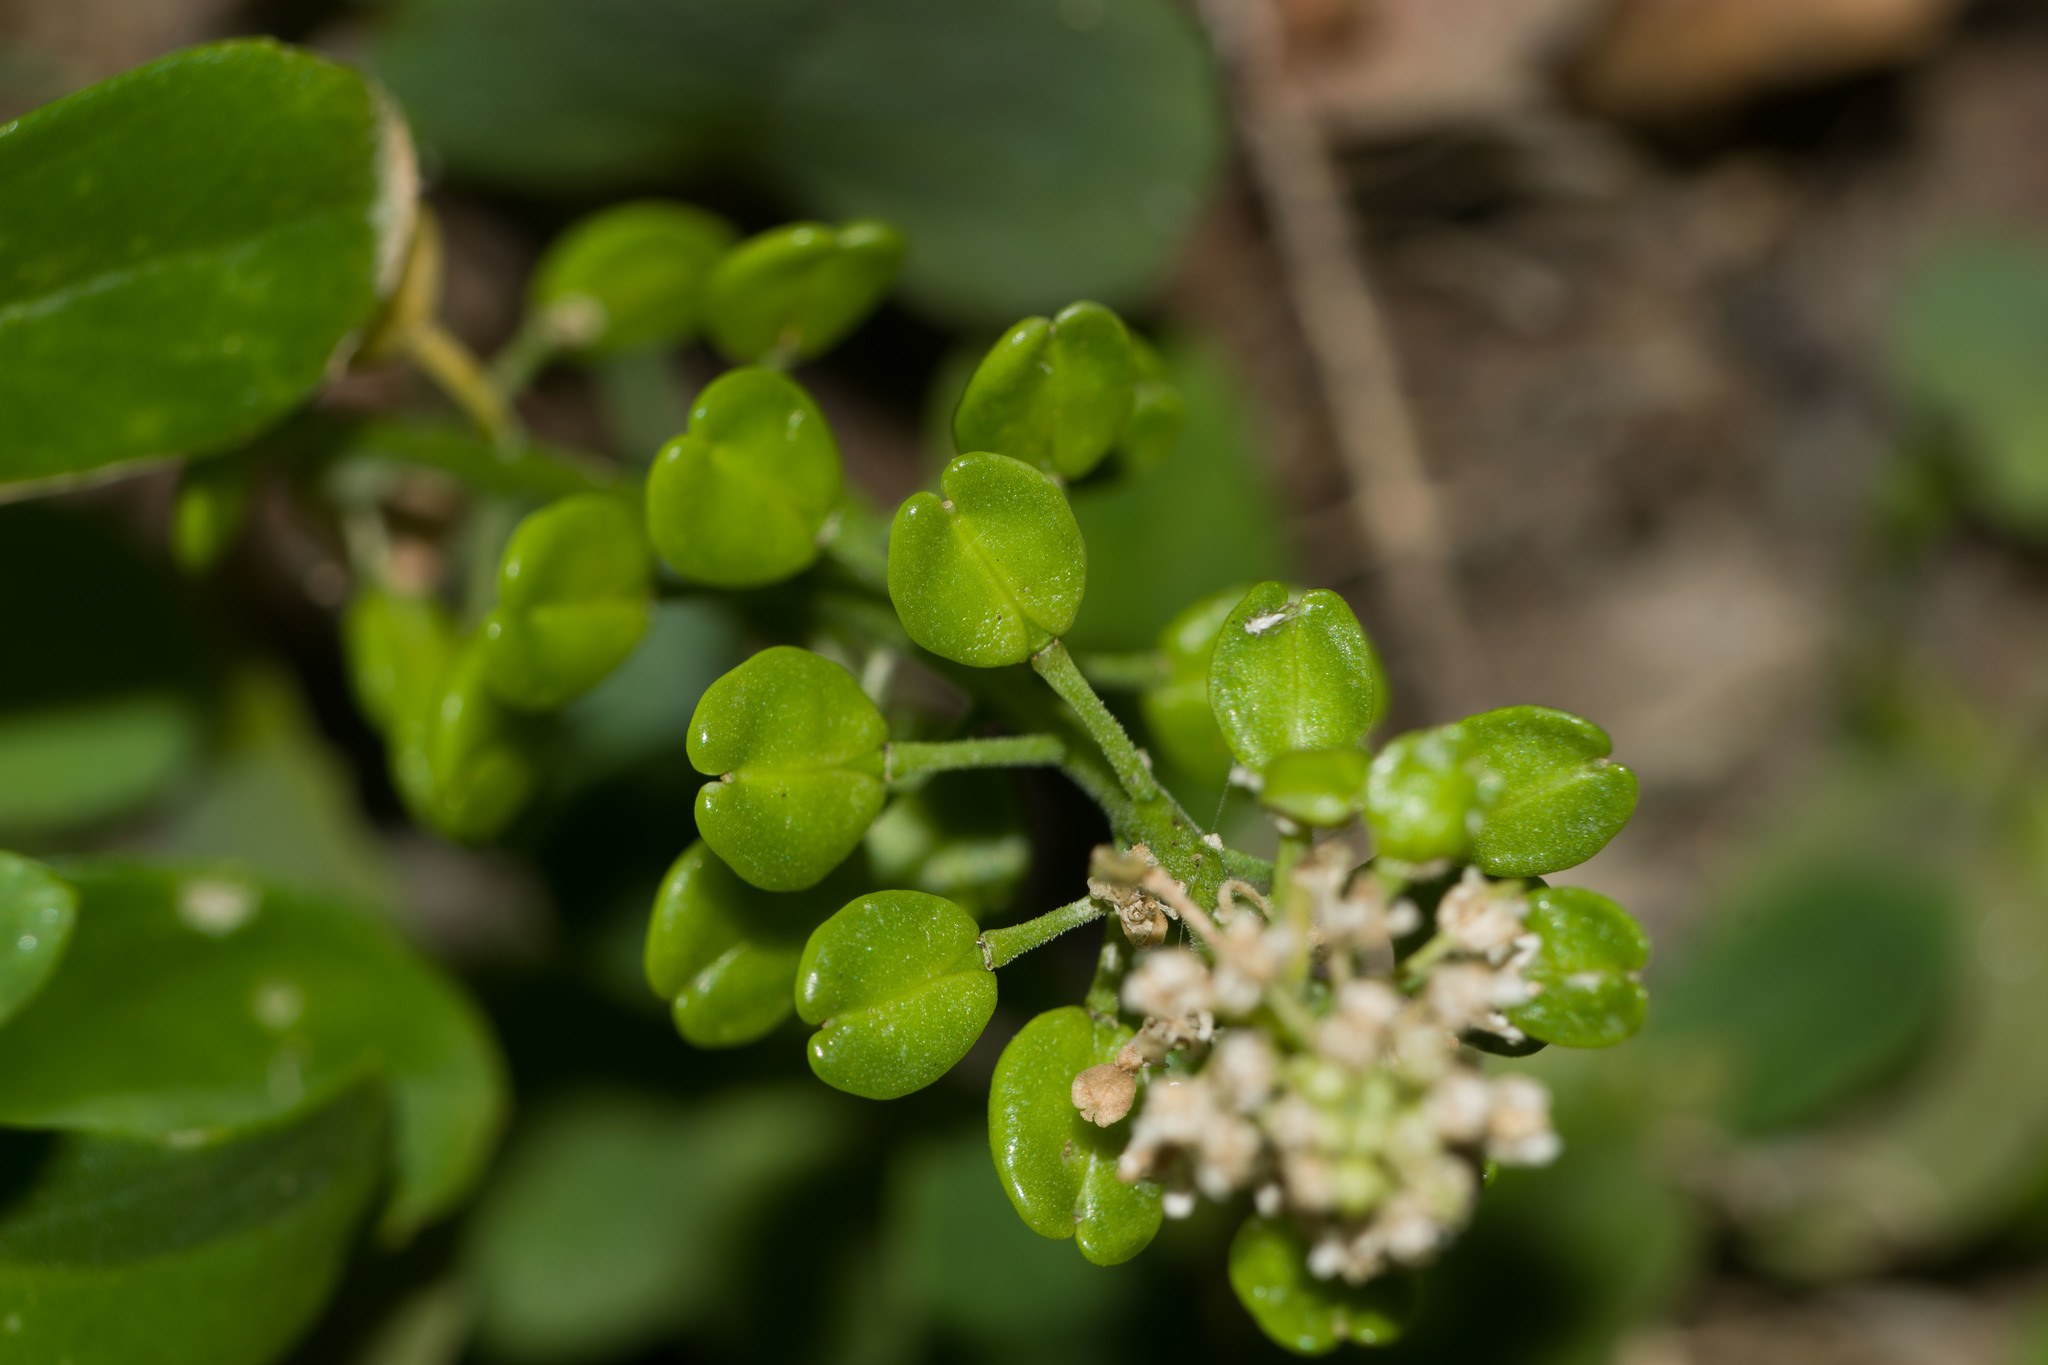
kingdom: Plantae
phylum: Tracheophyta
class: Magnoliopsida
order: Brassicales
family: Brassicaceae
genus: Lepidium
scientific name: Lepidium owaihiense
